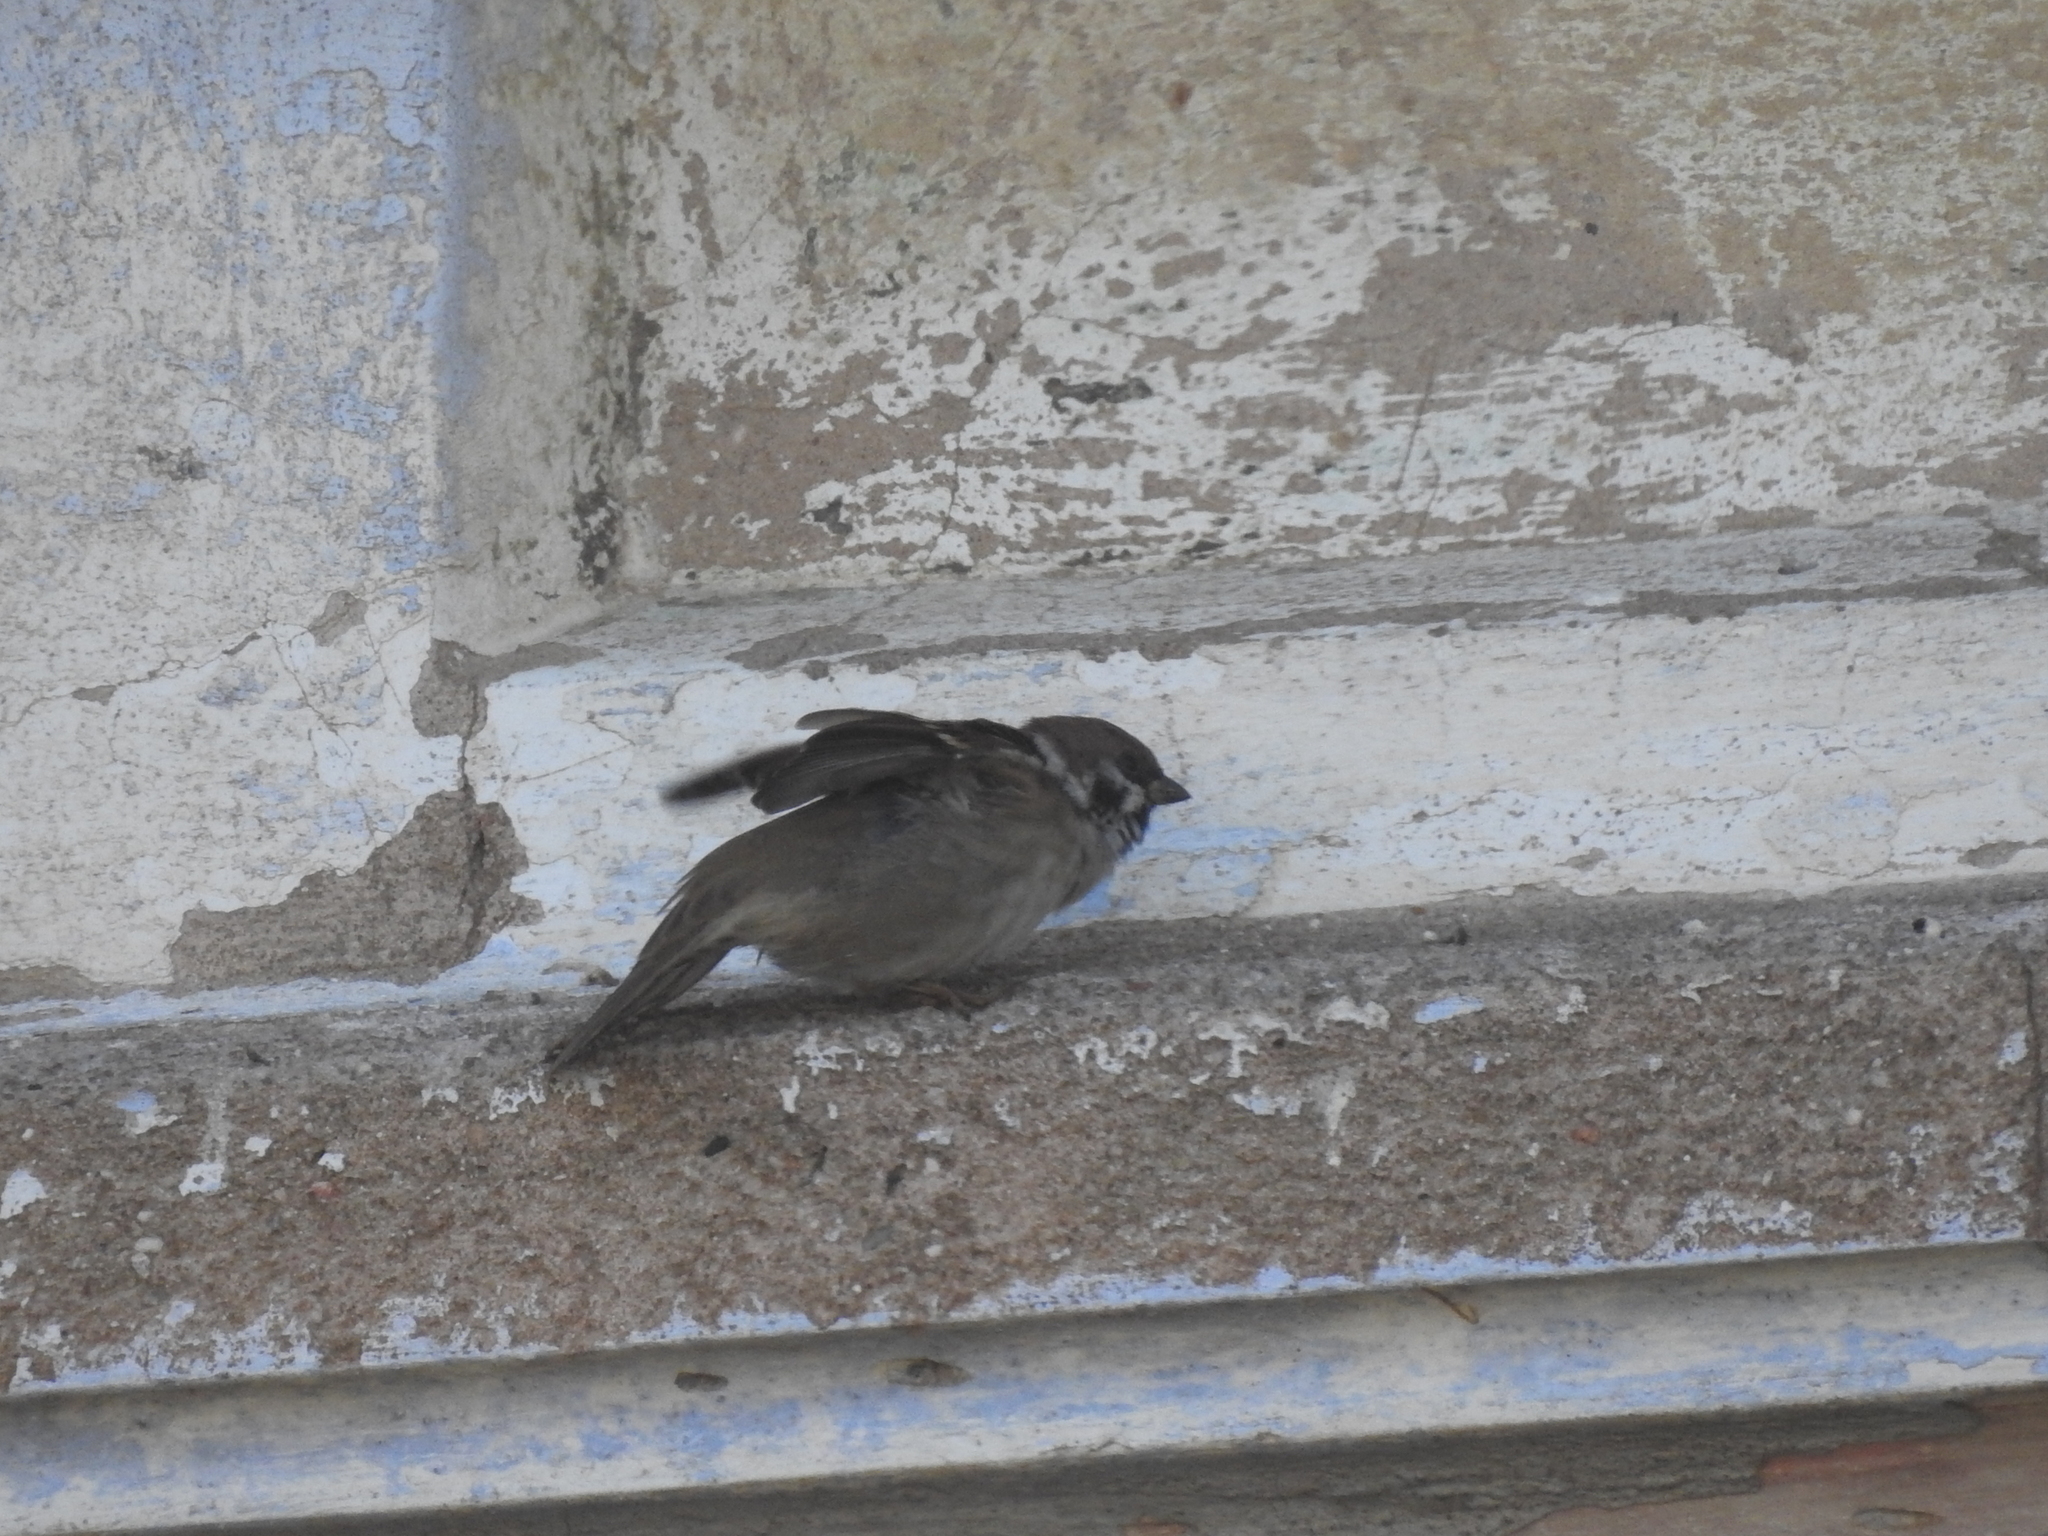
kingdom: Animalia
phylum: Chordata
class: Aves
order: Passeriformes
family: Passeridae
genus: Passer
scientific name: Passer montanus
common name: Eurasian tree sparrow
